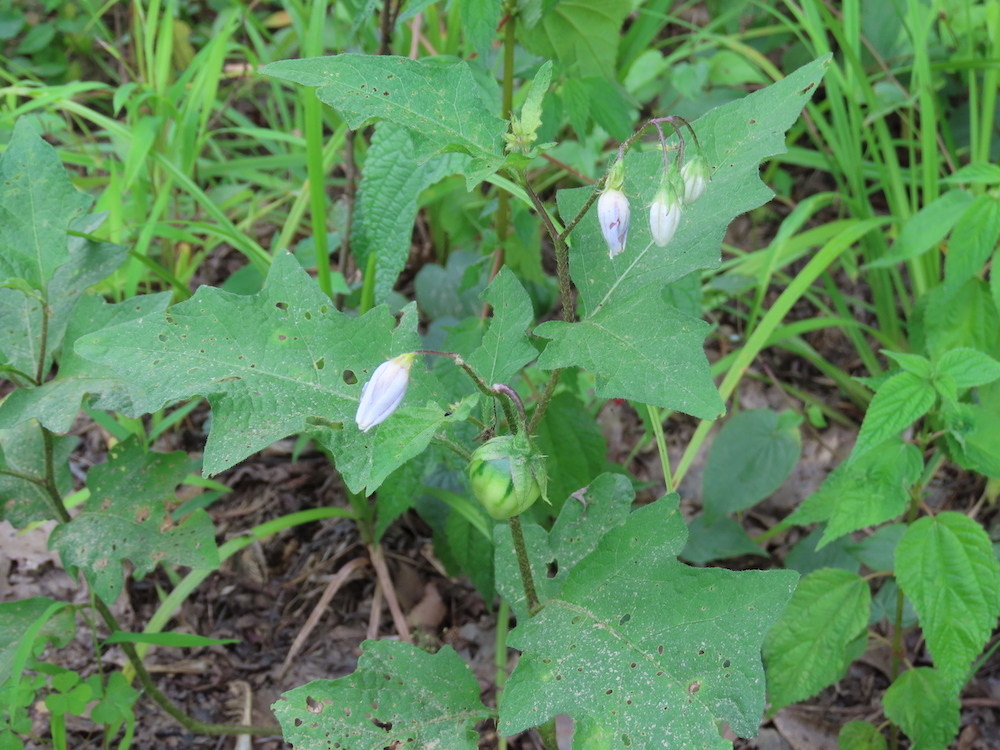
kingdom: Plantae
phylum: Tracheophyta
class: Magnoliopsida
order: Solanales
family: Solanaceae
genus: Solanum
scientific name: Solanum carolinense
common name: Horse-nettle
